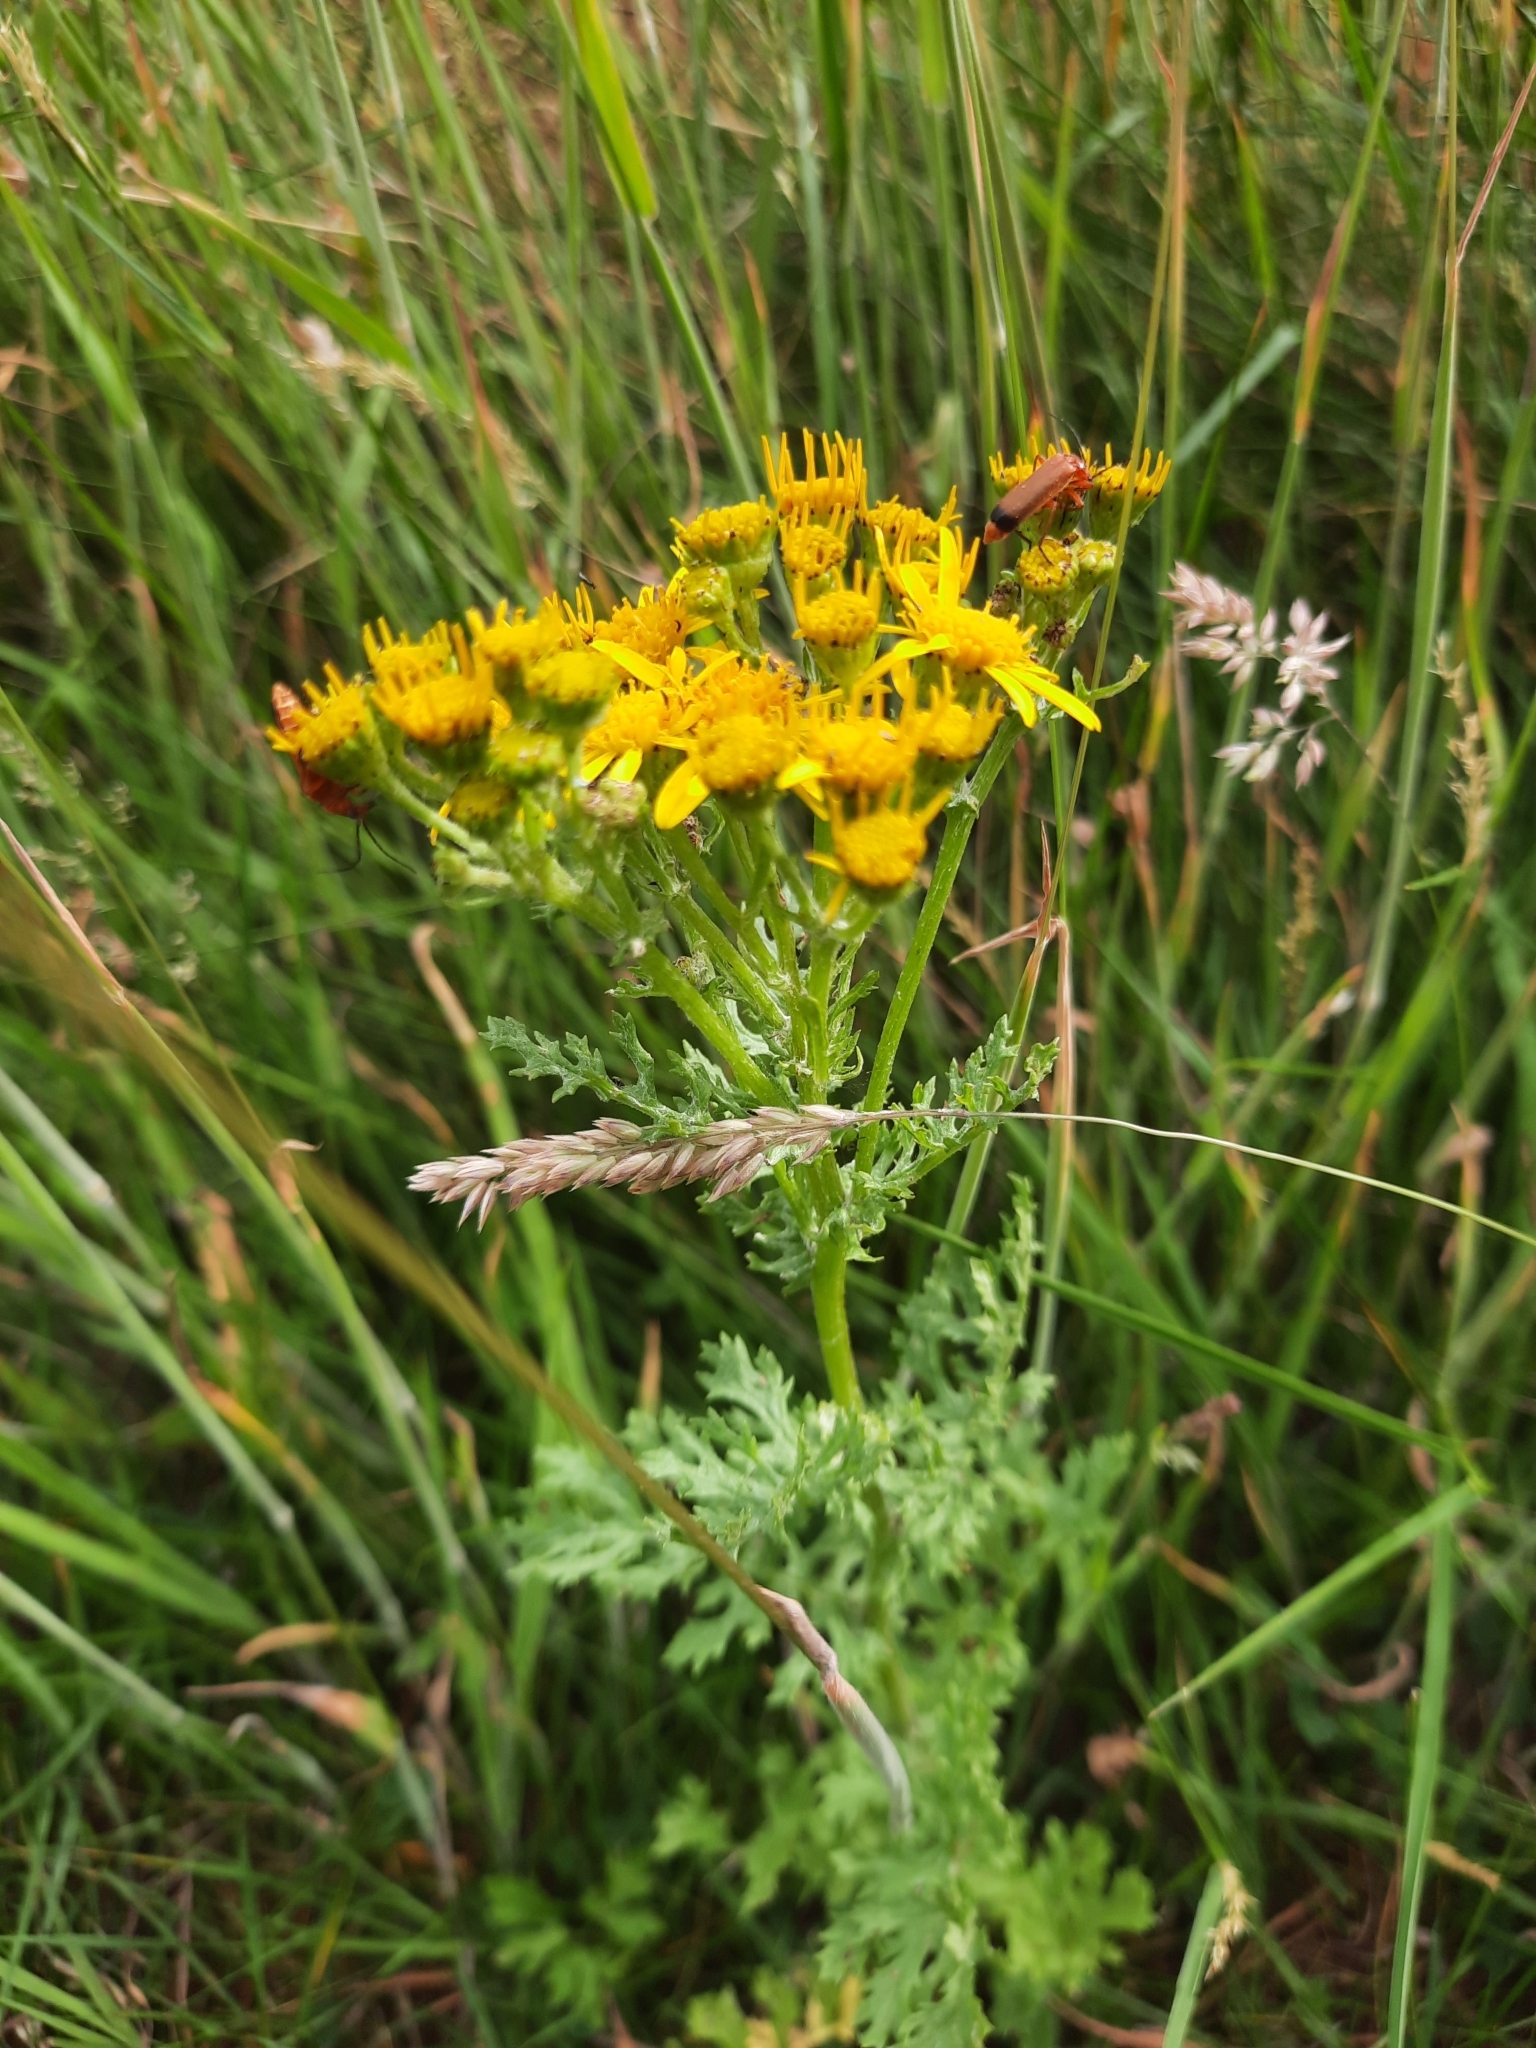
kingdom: Plantae
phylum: Tracheophyta
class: Magnoliopsida
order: Asterales
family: Asteraceae
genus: Jacobaea
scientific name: Jacobaea vulgaris
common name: Stinking willie
